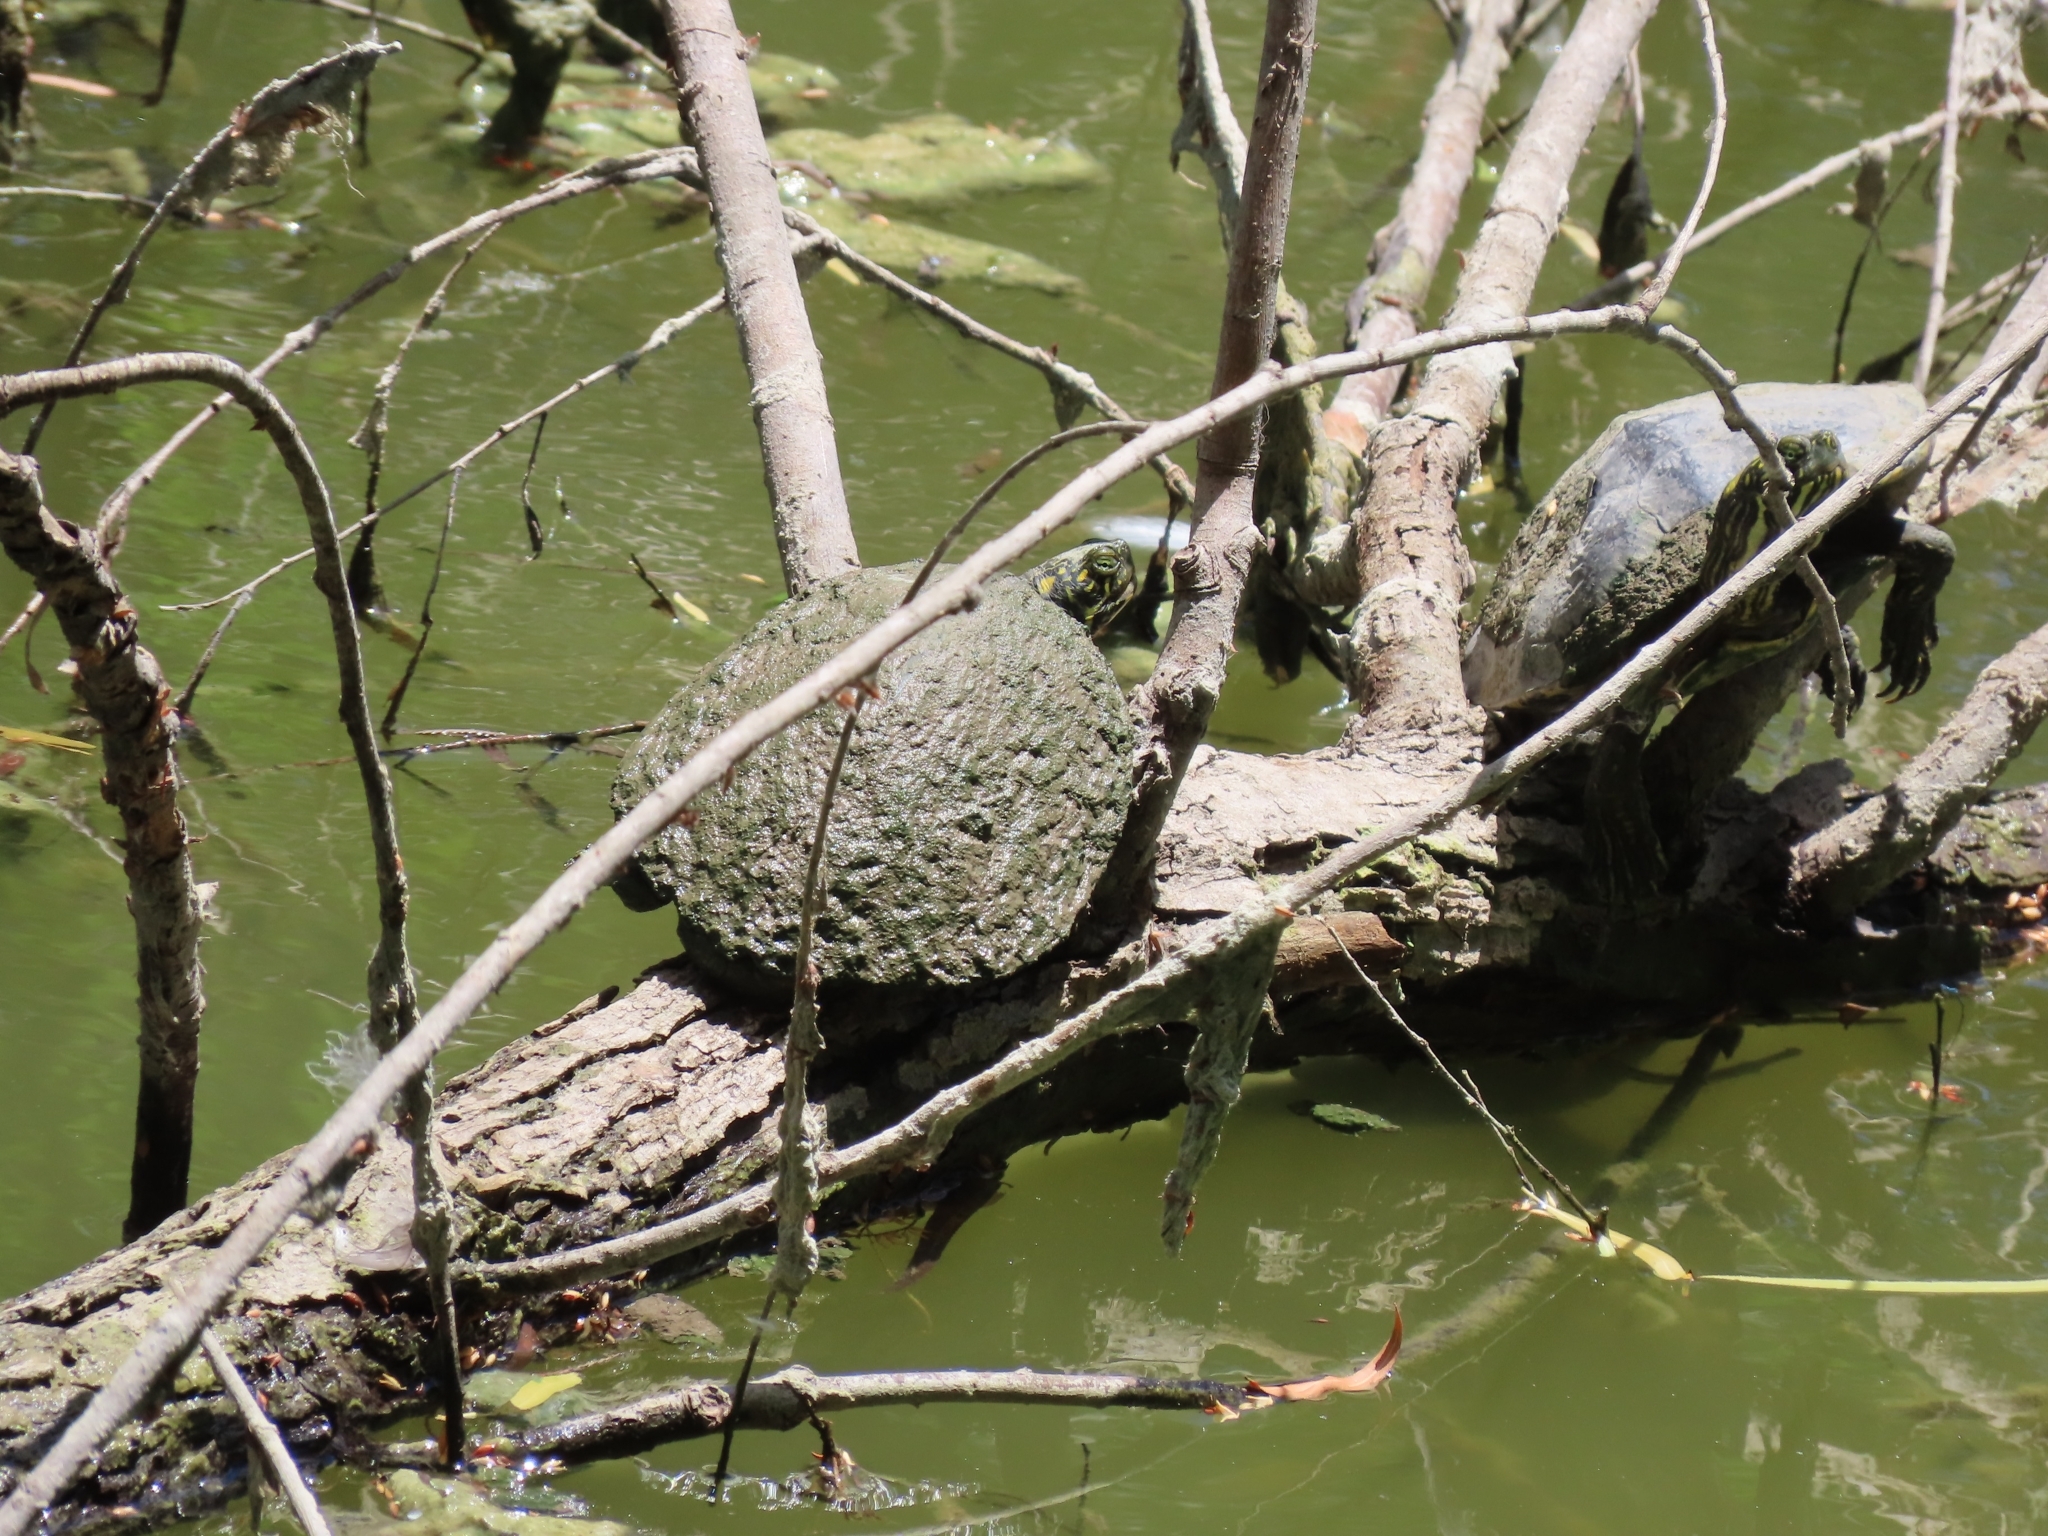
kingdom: Animalia
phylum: Chordata
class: Testudines
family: Emydidae
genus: Pseudemys
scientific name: Pseudemys texana
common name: Texas river cooter
